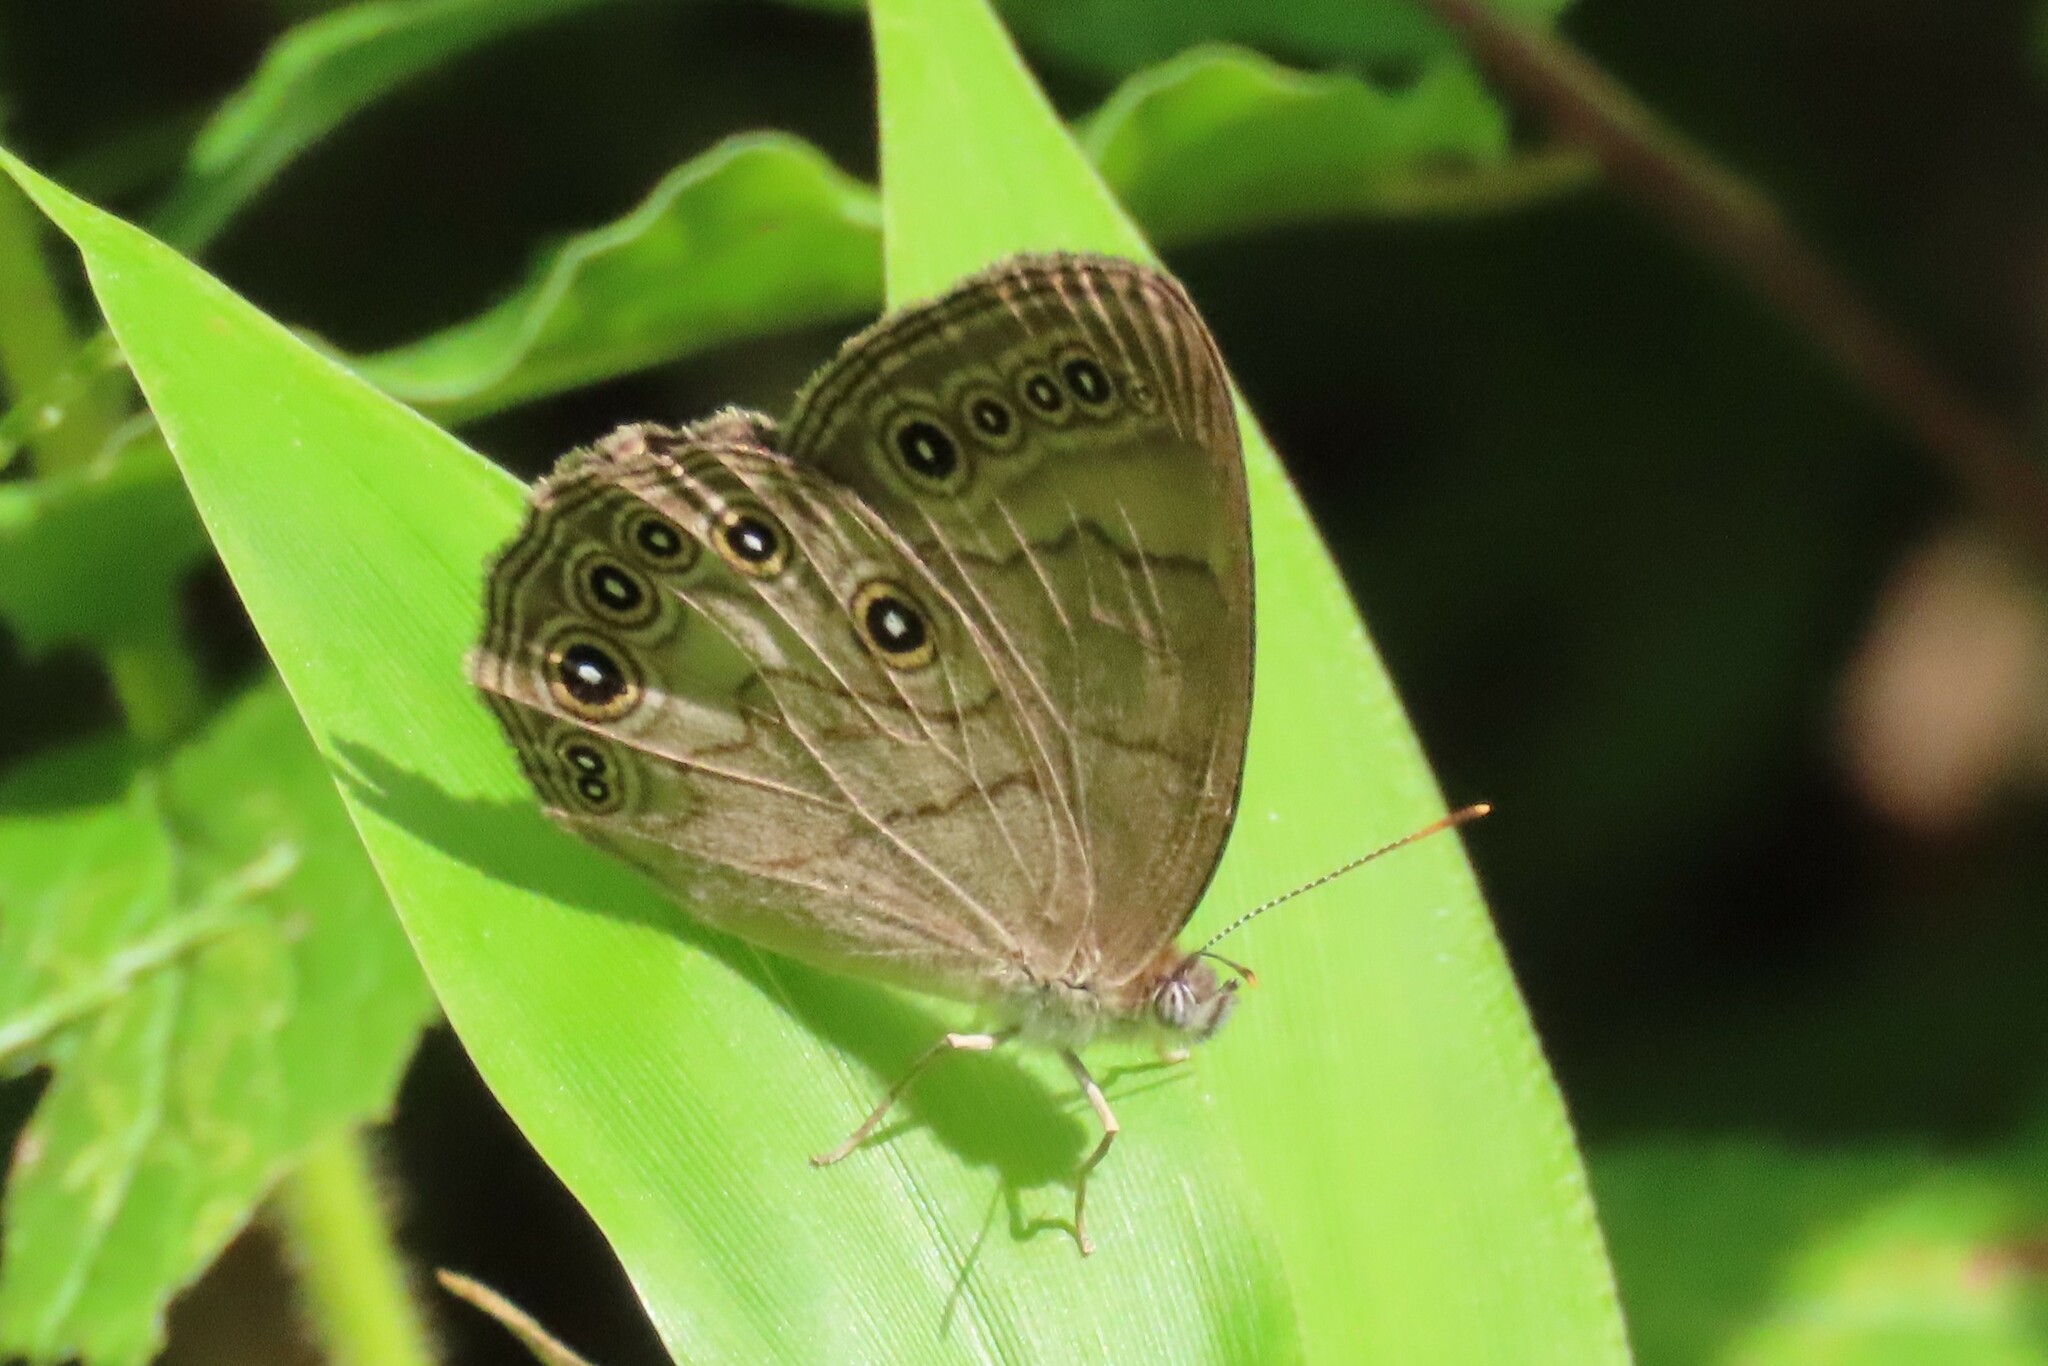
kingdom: Animalia
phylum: Arthropoda
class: Insecta
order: Lepidoptera
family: Nymphalidae
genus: Lethe
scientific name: Lethe eurydice
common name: Eyed brown
